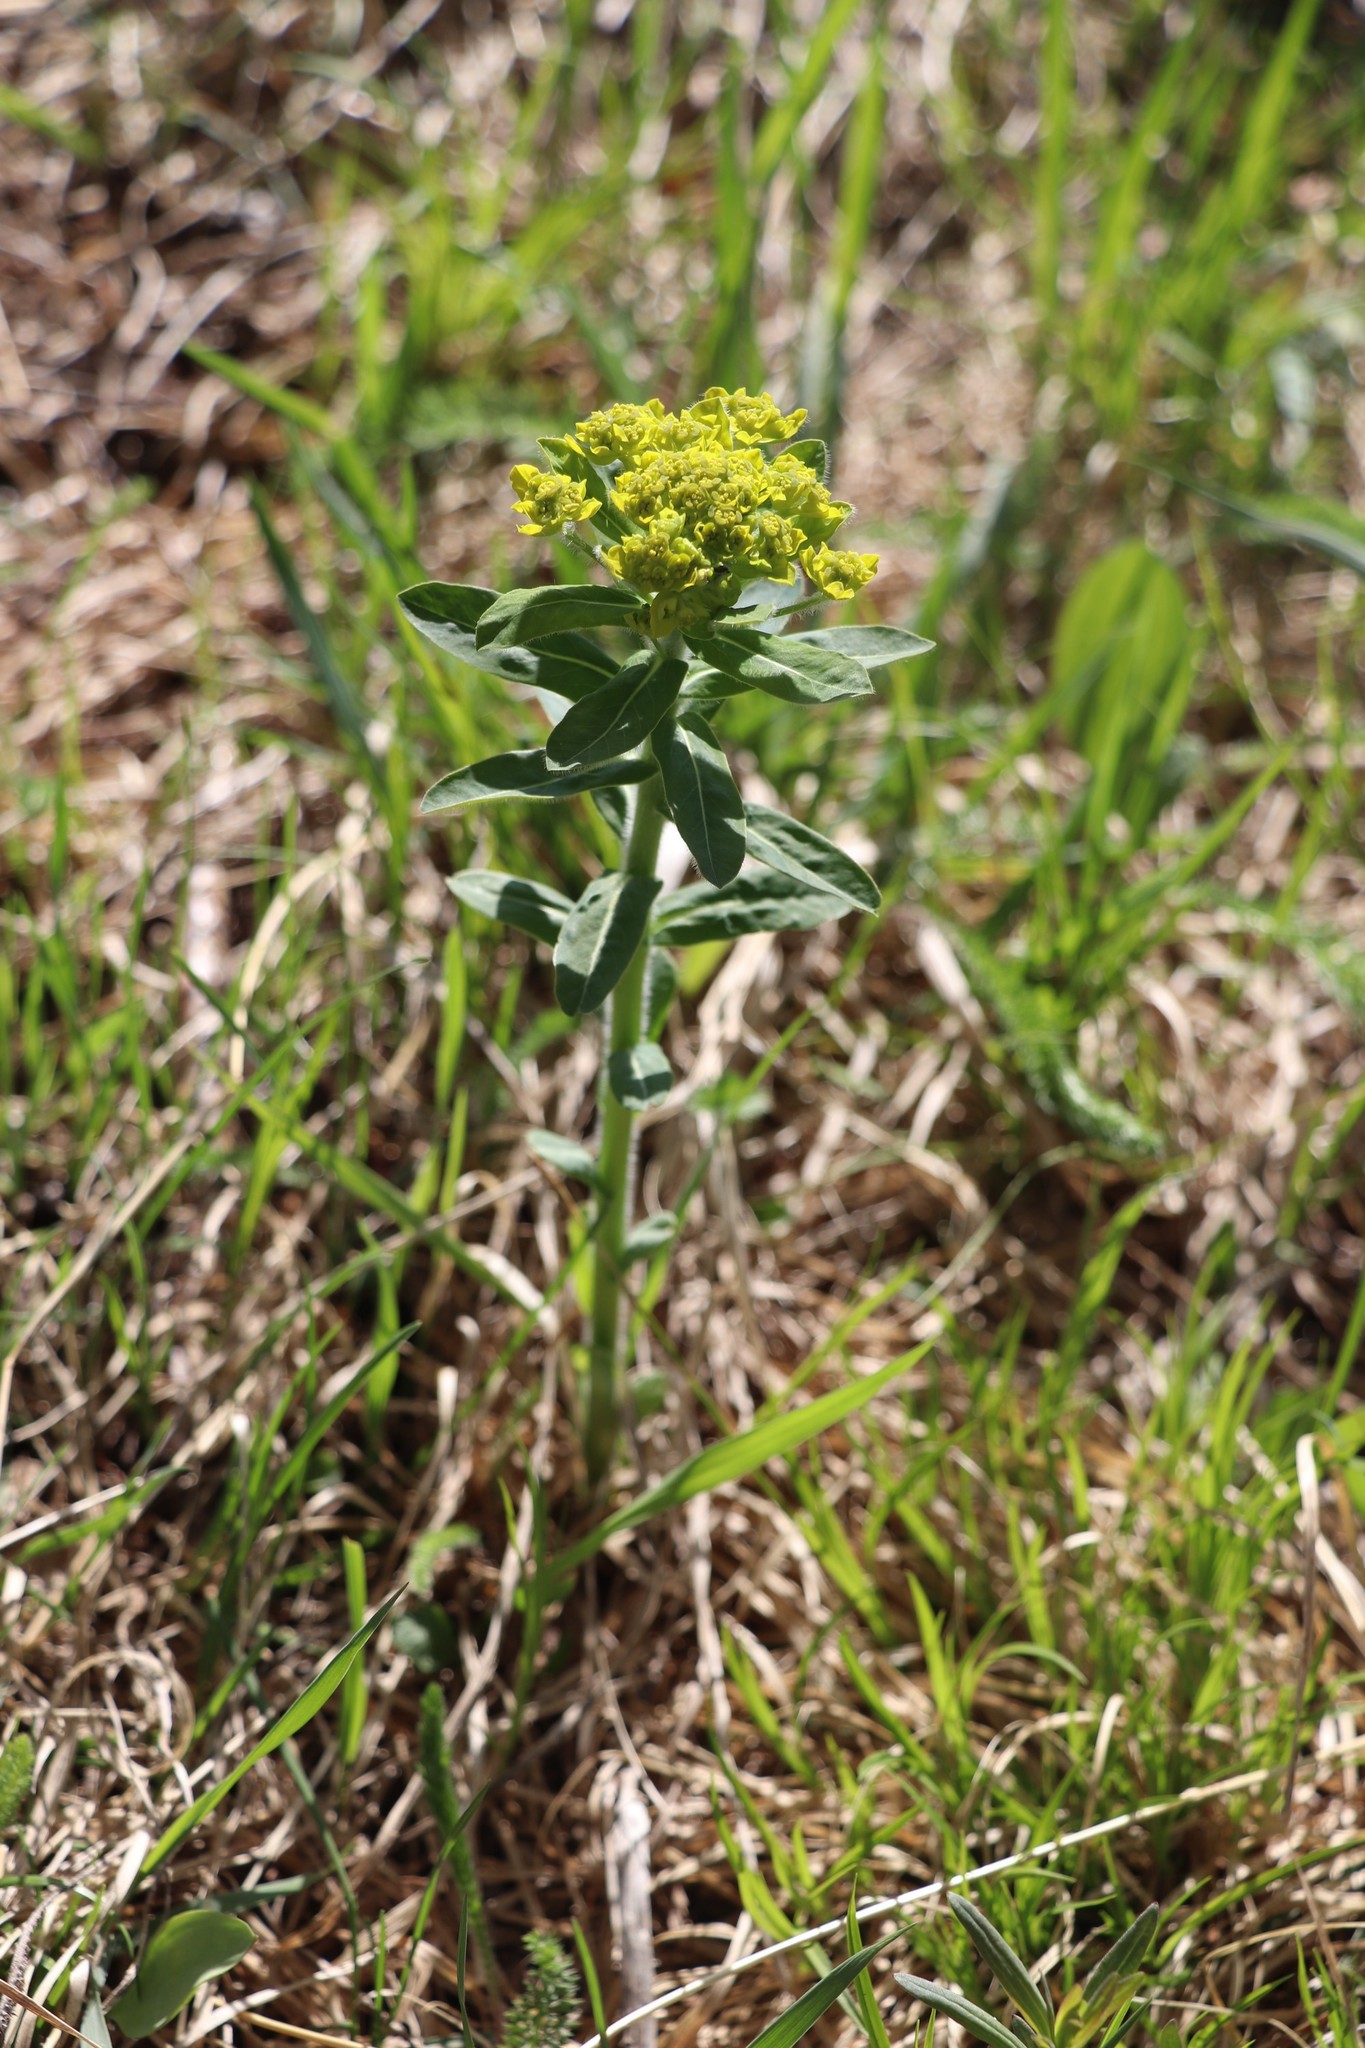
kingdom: Plantae
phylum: Tracheophyta
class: Magnoliopsida
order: Malpighiales
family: Euphorbiaceae
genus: Euphorbia
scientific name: Euphorbia pilosa
